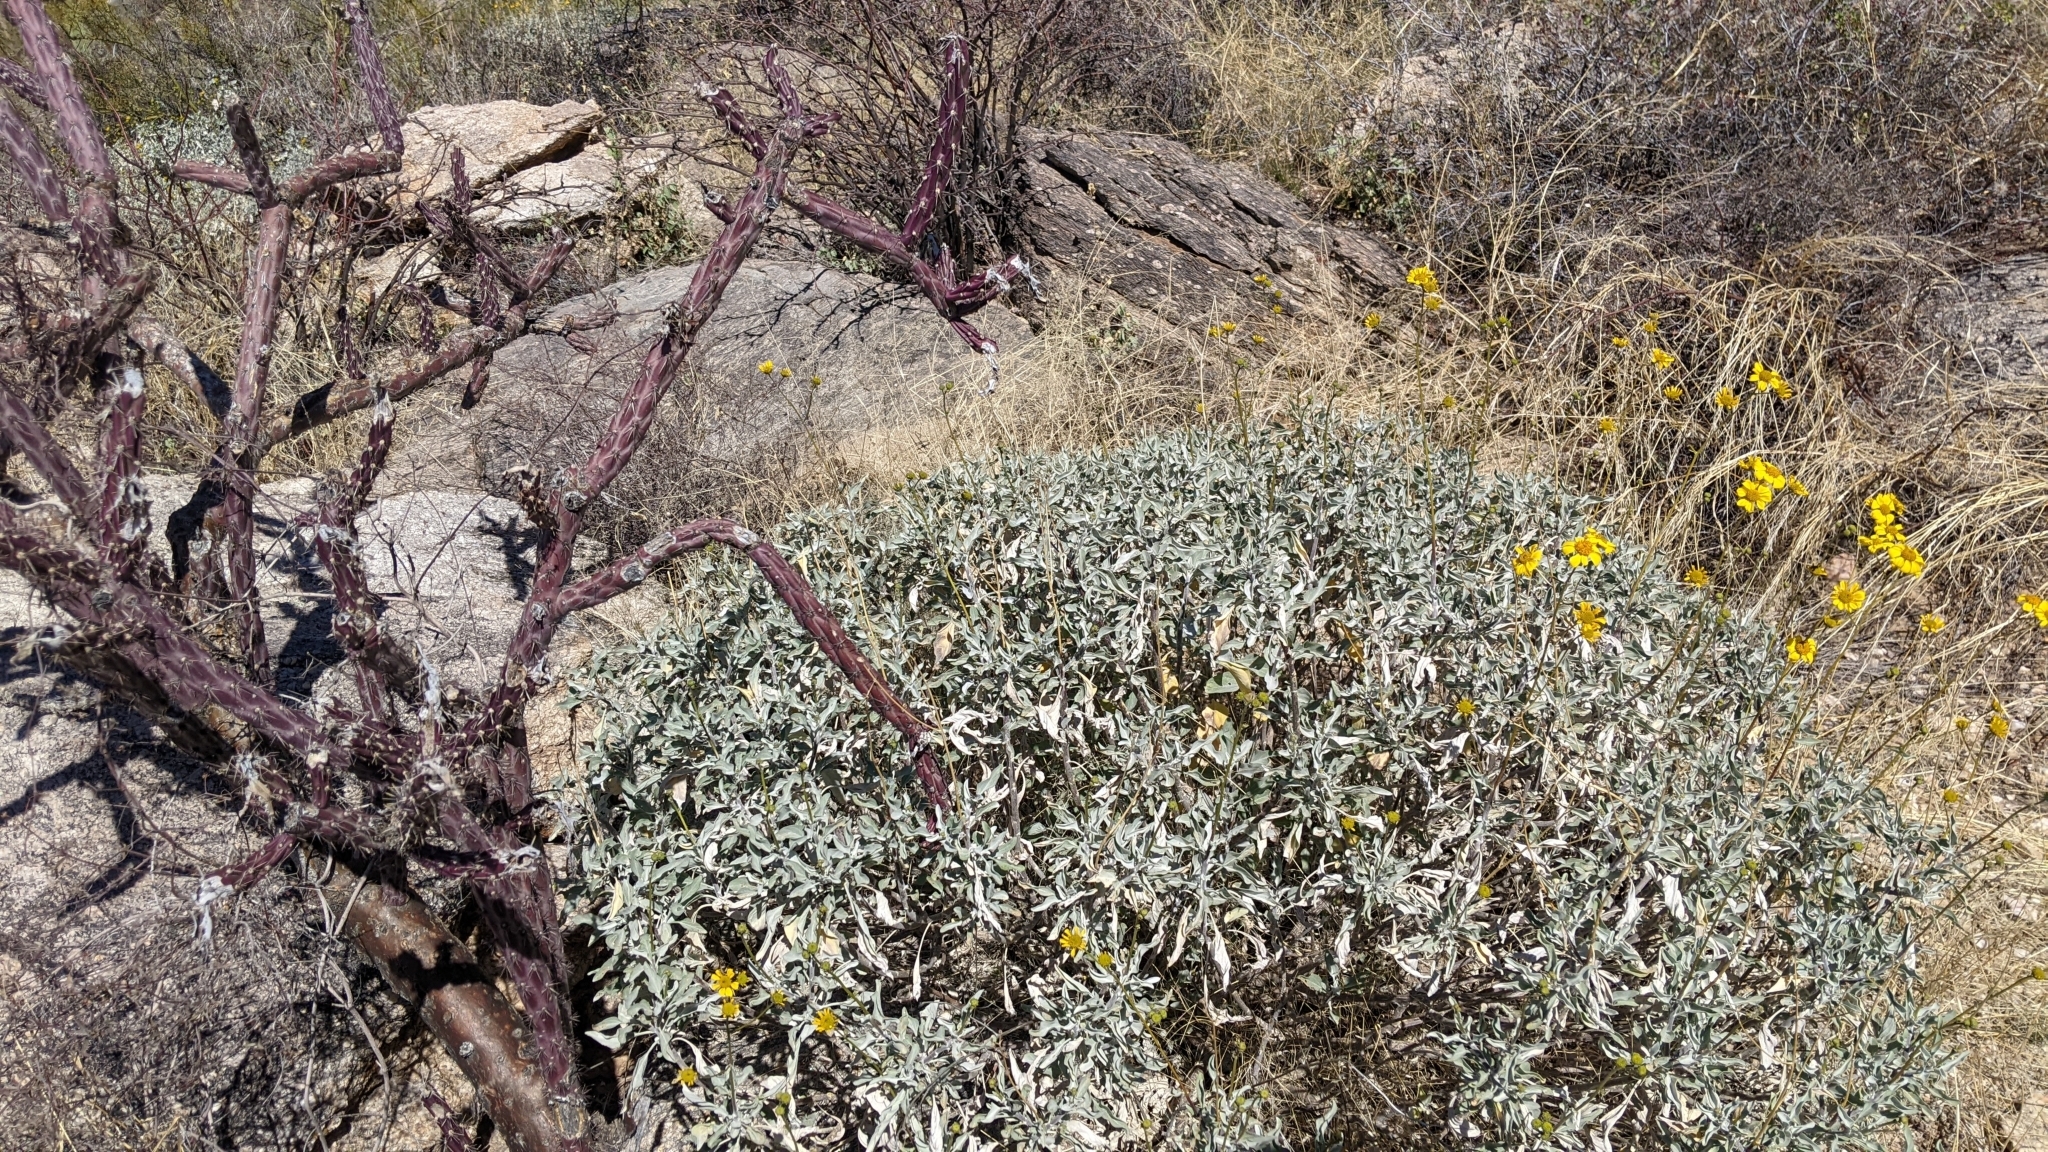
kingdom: Plantae
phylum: Tracheophyta
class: Magnoliopsida
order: Asterales
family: Asteraceae
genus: Encelia
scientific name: Encelia farinosa
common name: Brittlebush
